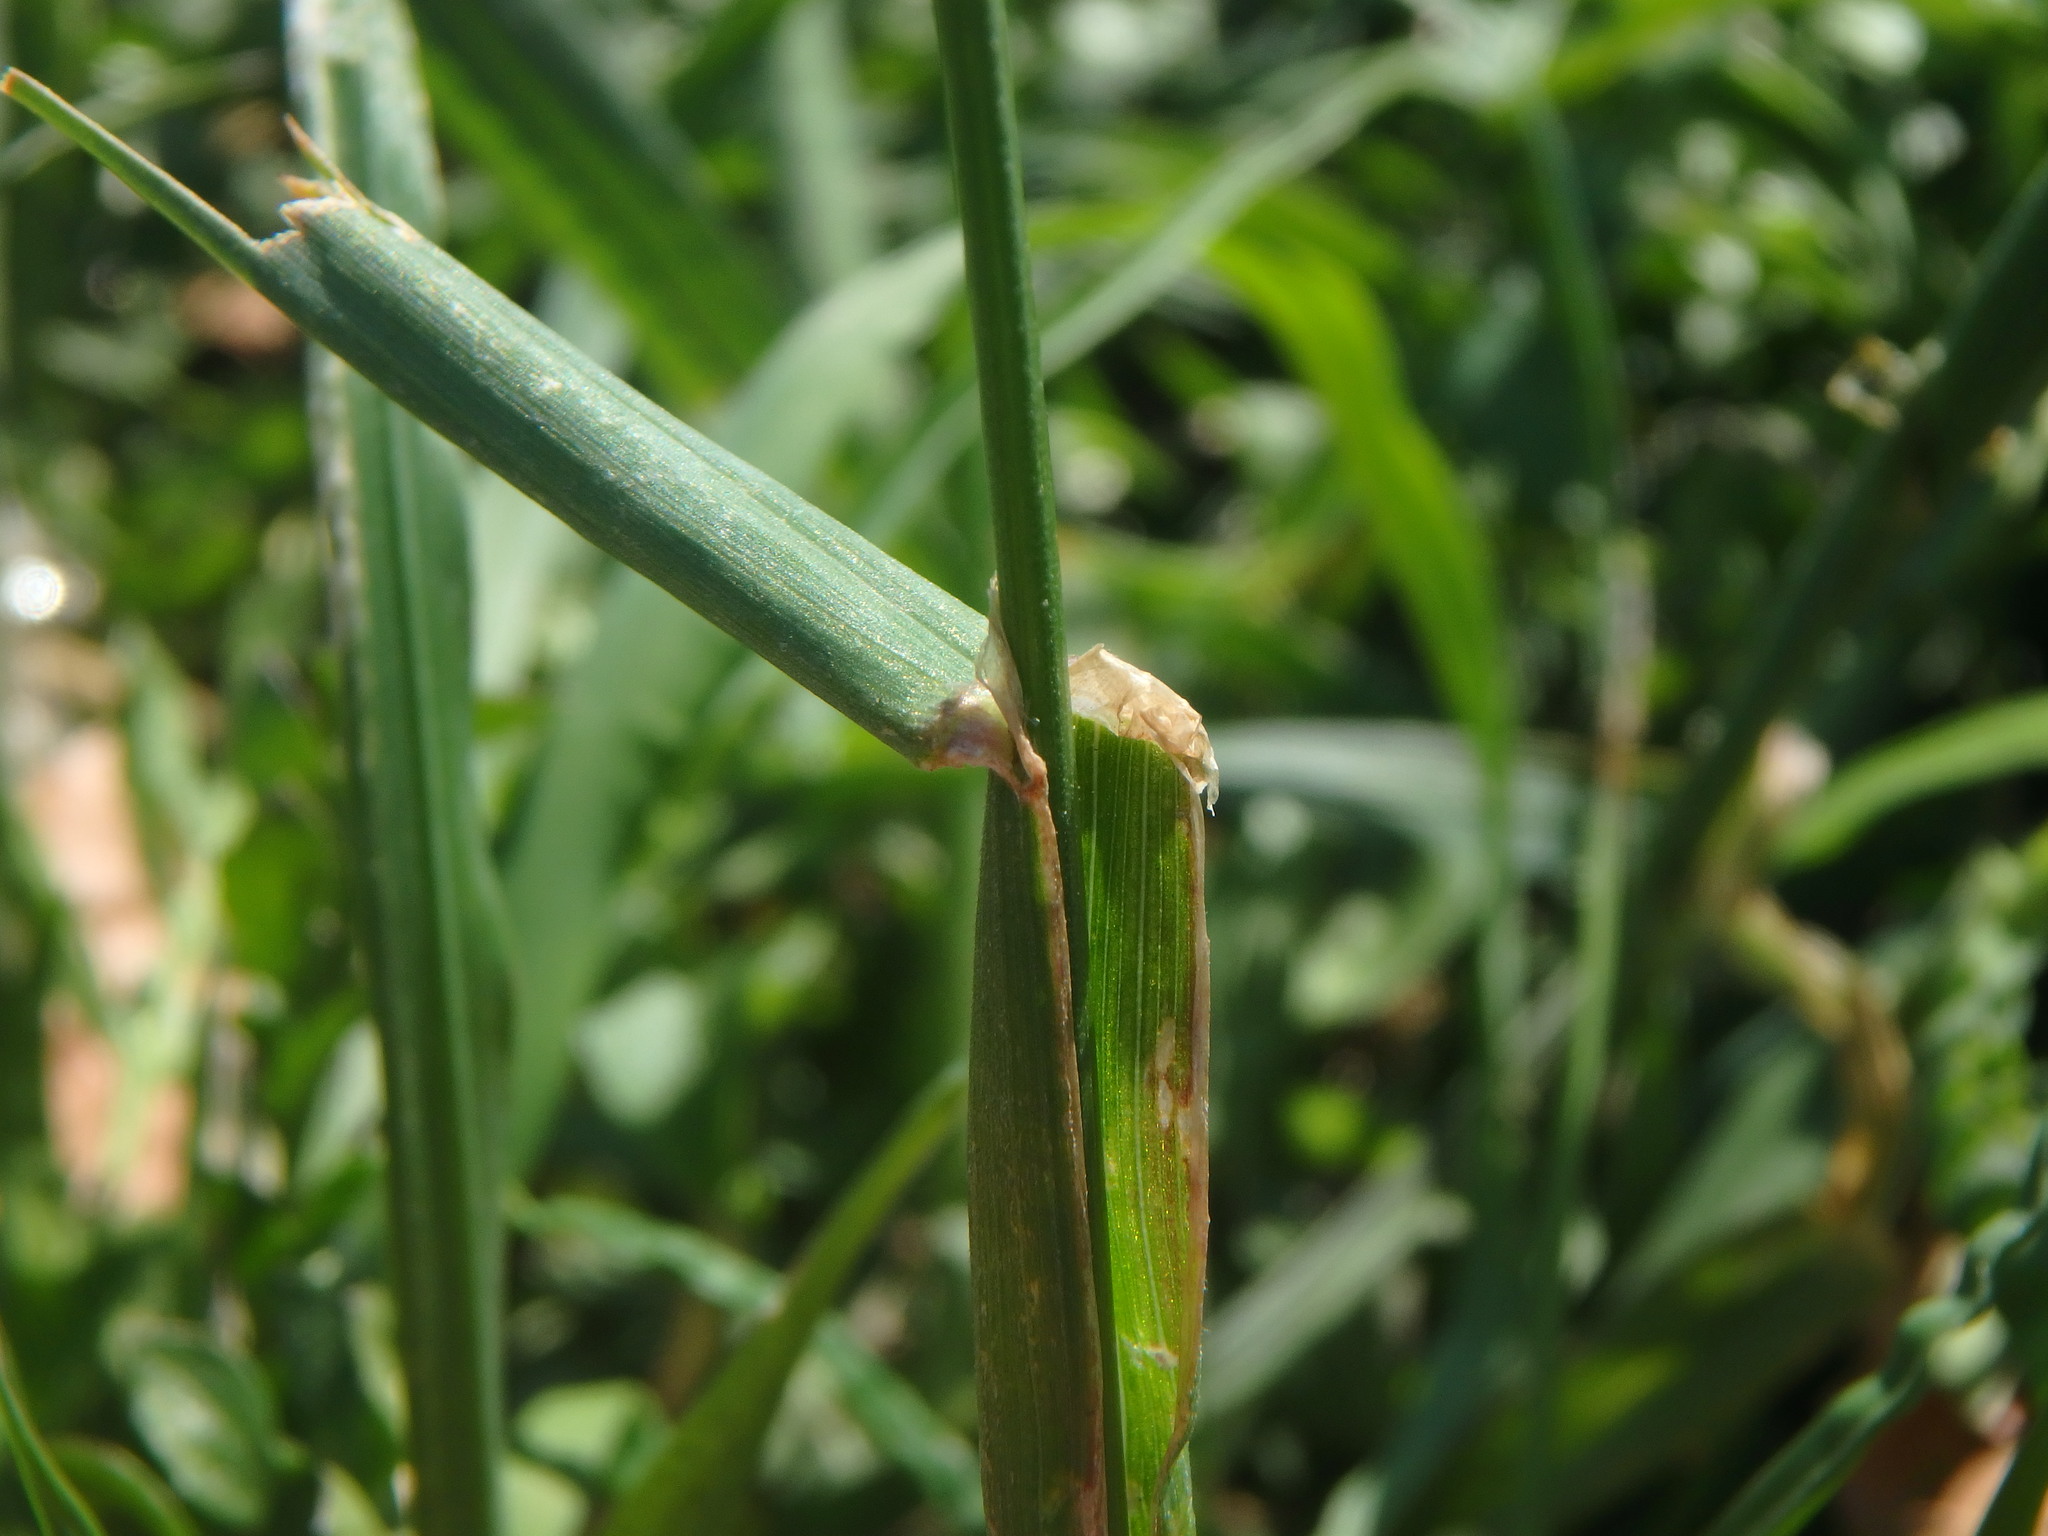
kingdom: Plantae
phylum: Tracheophyta
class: Liliopsida
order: Poales
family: Poaceae
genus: Dactylis
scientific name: Dactylis glomerata
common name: Orchardgrass
